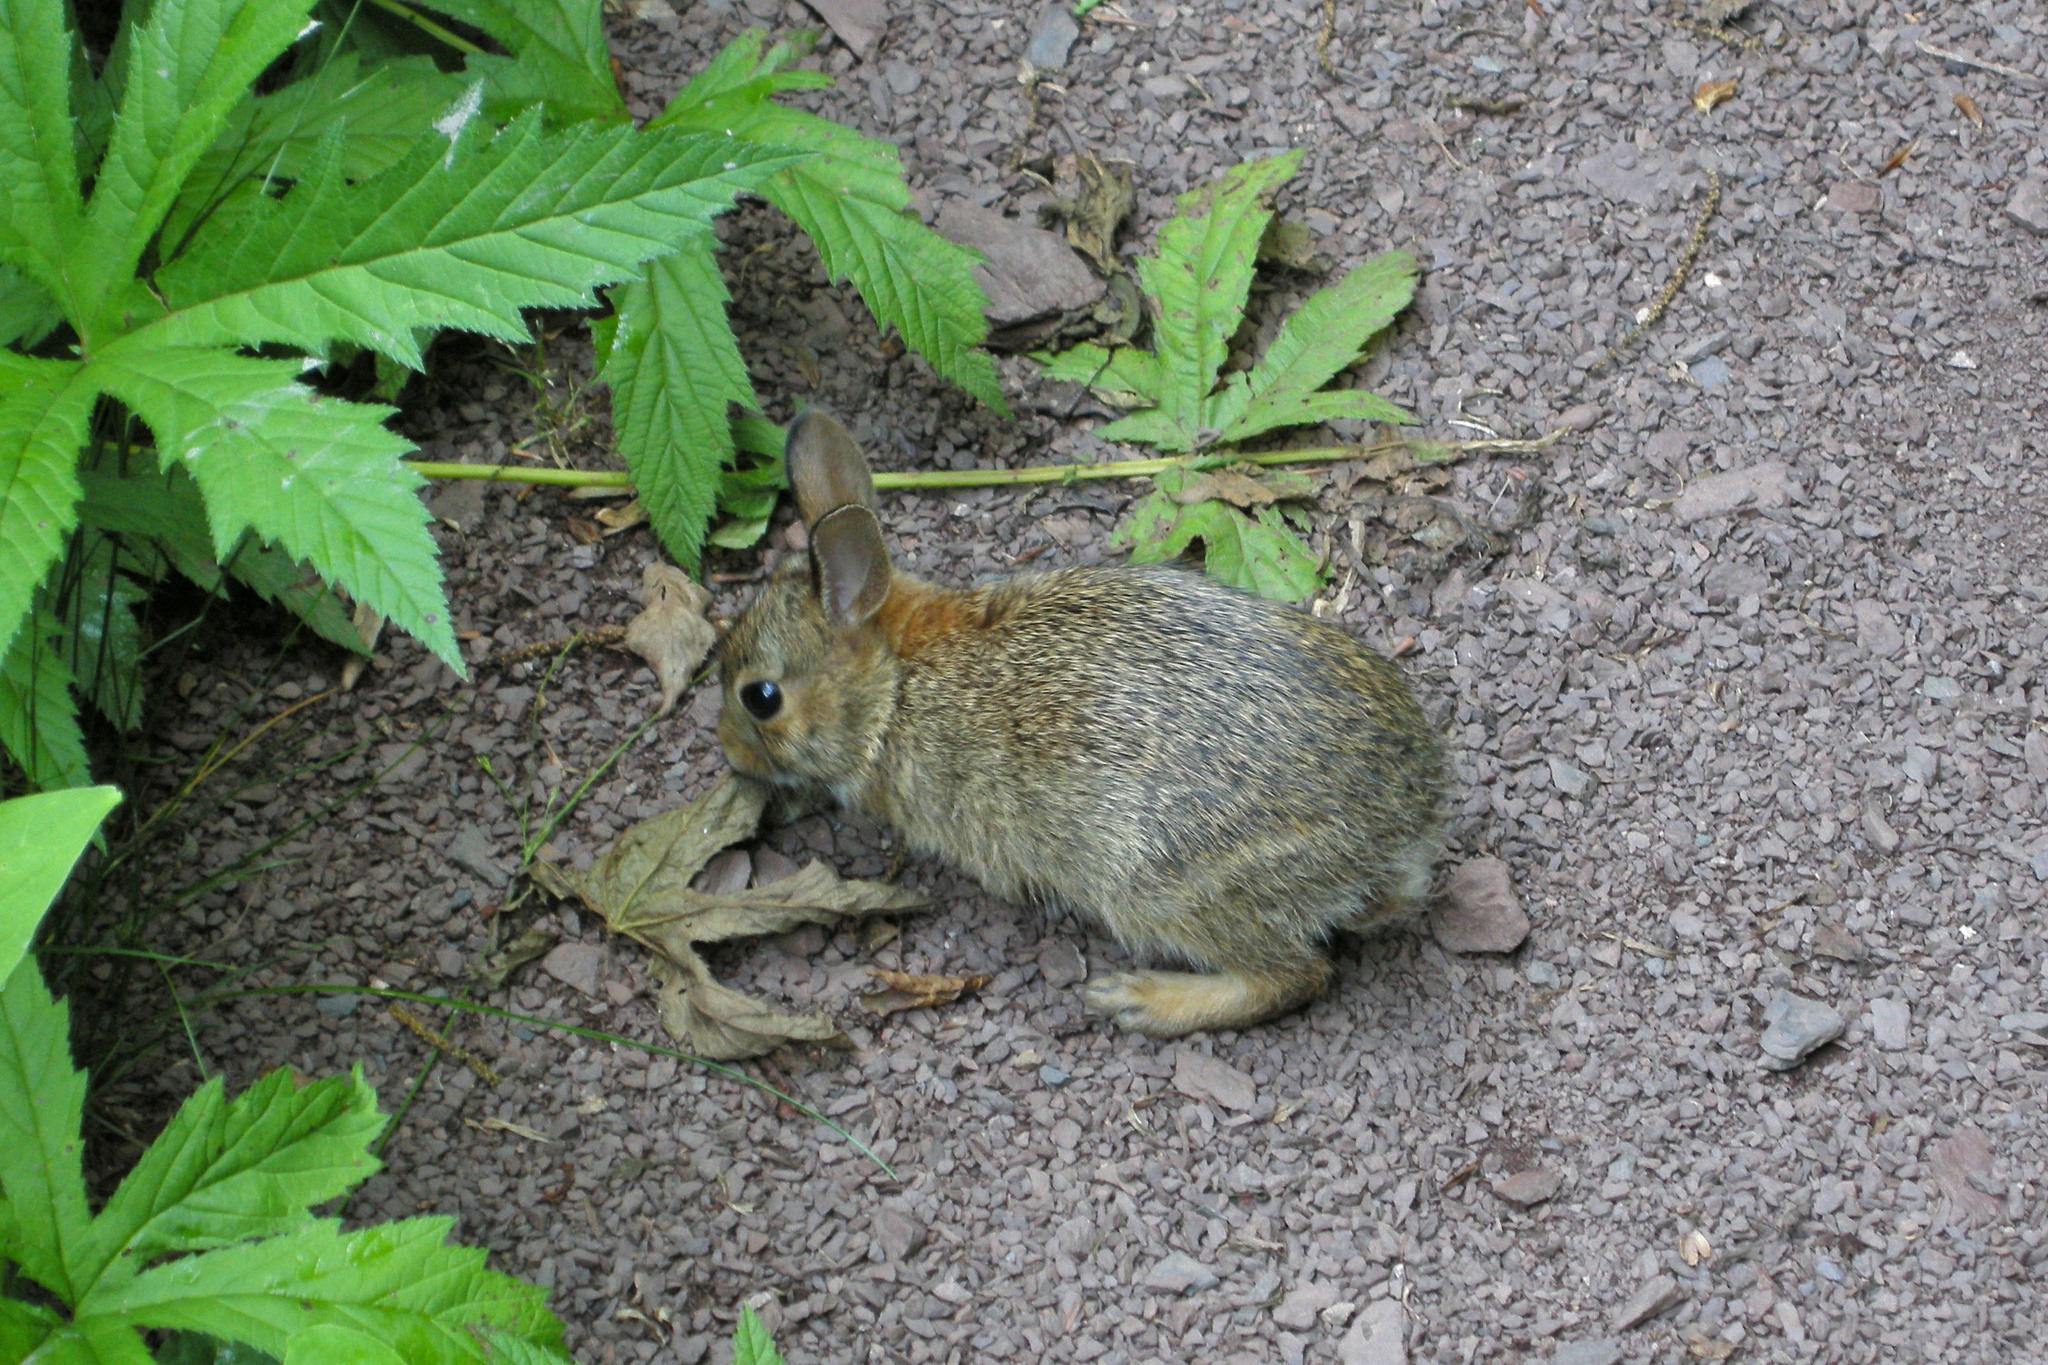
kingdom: Animalia
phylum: Chordata
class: Mammalia
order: Lagomorpha
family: Leporidae
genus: Sylvilagus
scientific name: Sylvilagus floridanus
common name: Eastern cottontail
